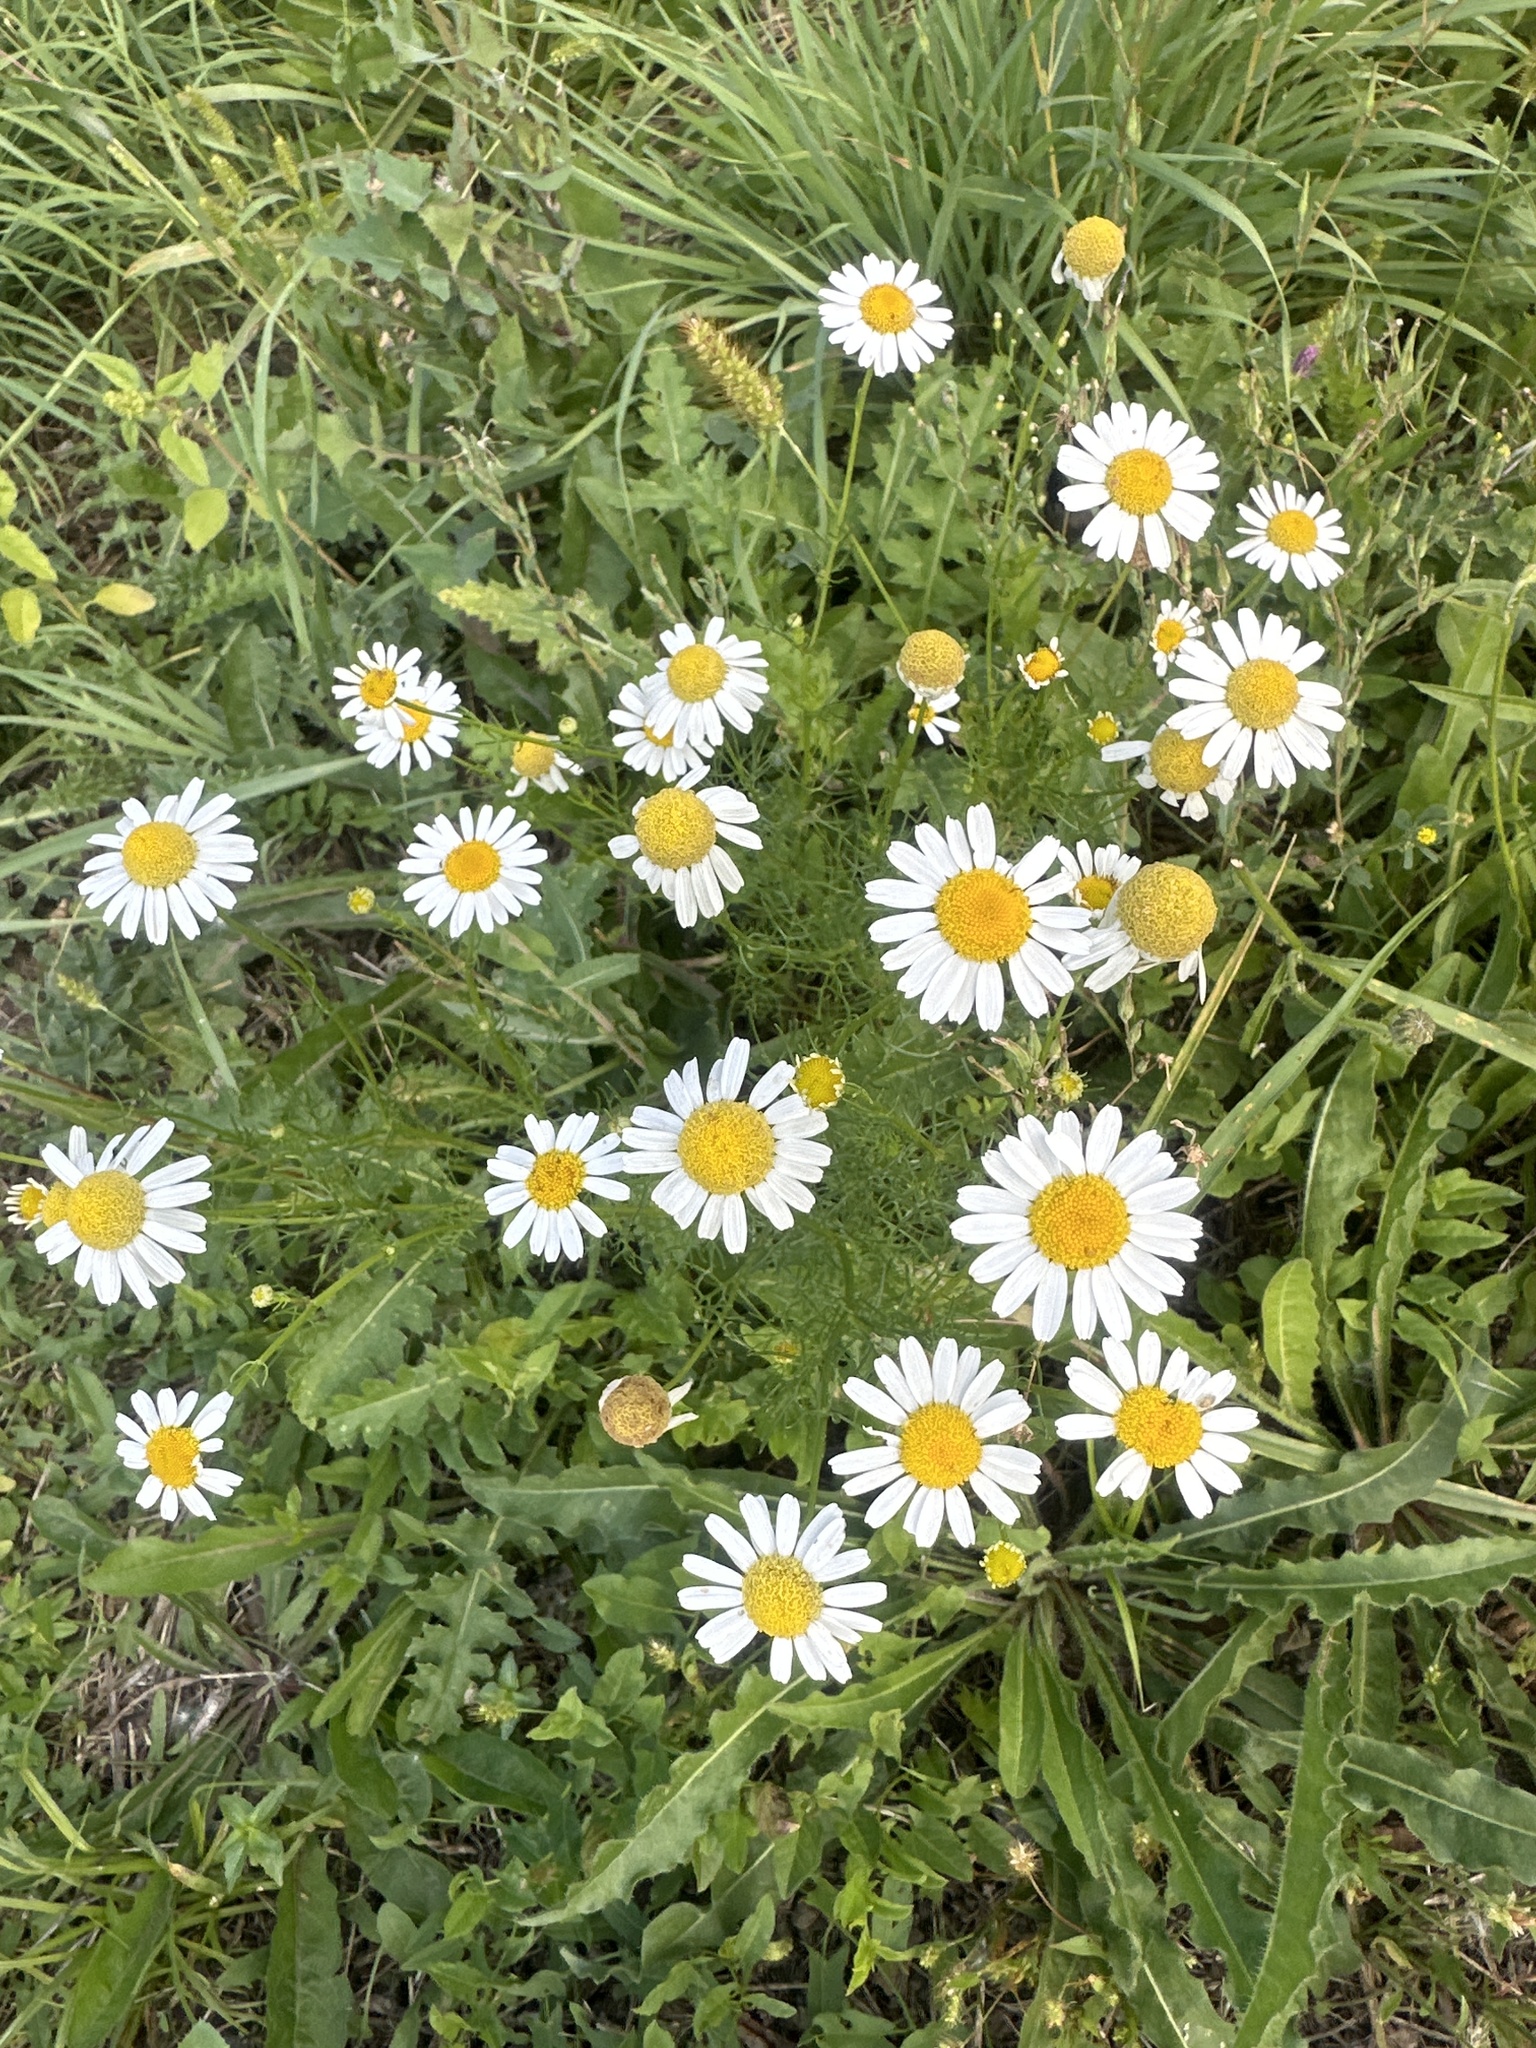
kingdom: Plantae
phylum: Tracheophyta
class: Magnoliopsida
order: Asterales
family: Asteraceae
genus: Tripleurospermum
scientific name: Tripleurospermum inodorum
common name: Scentless mayweed
